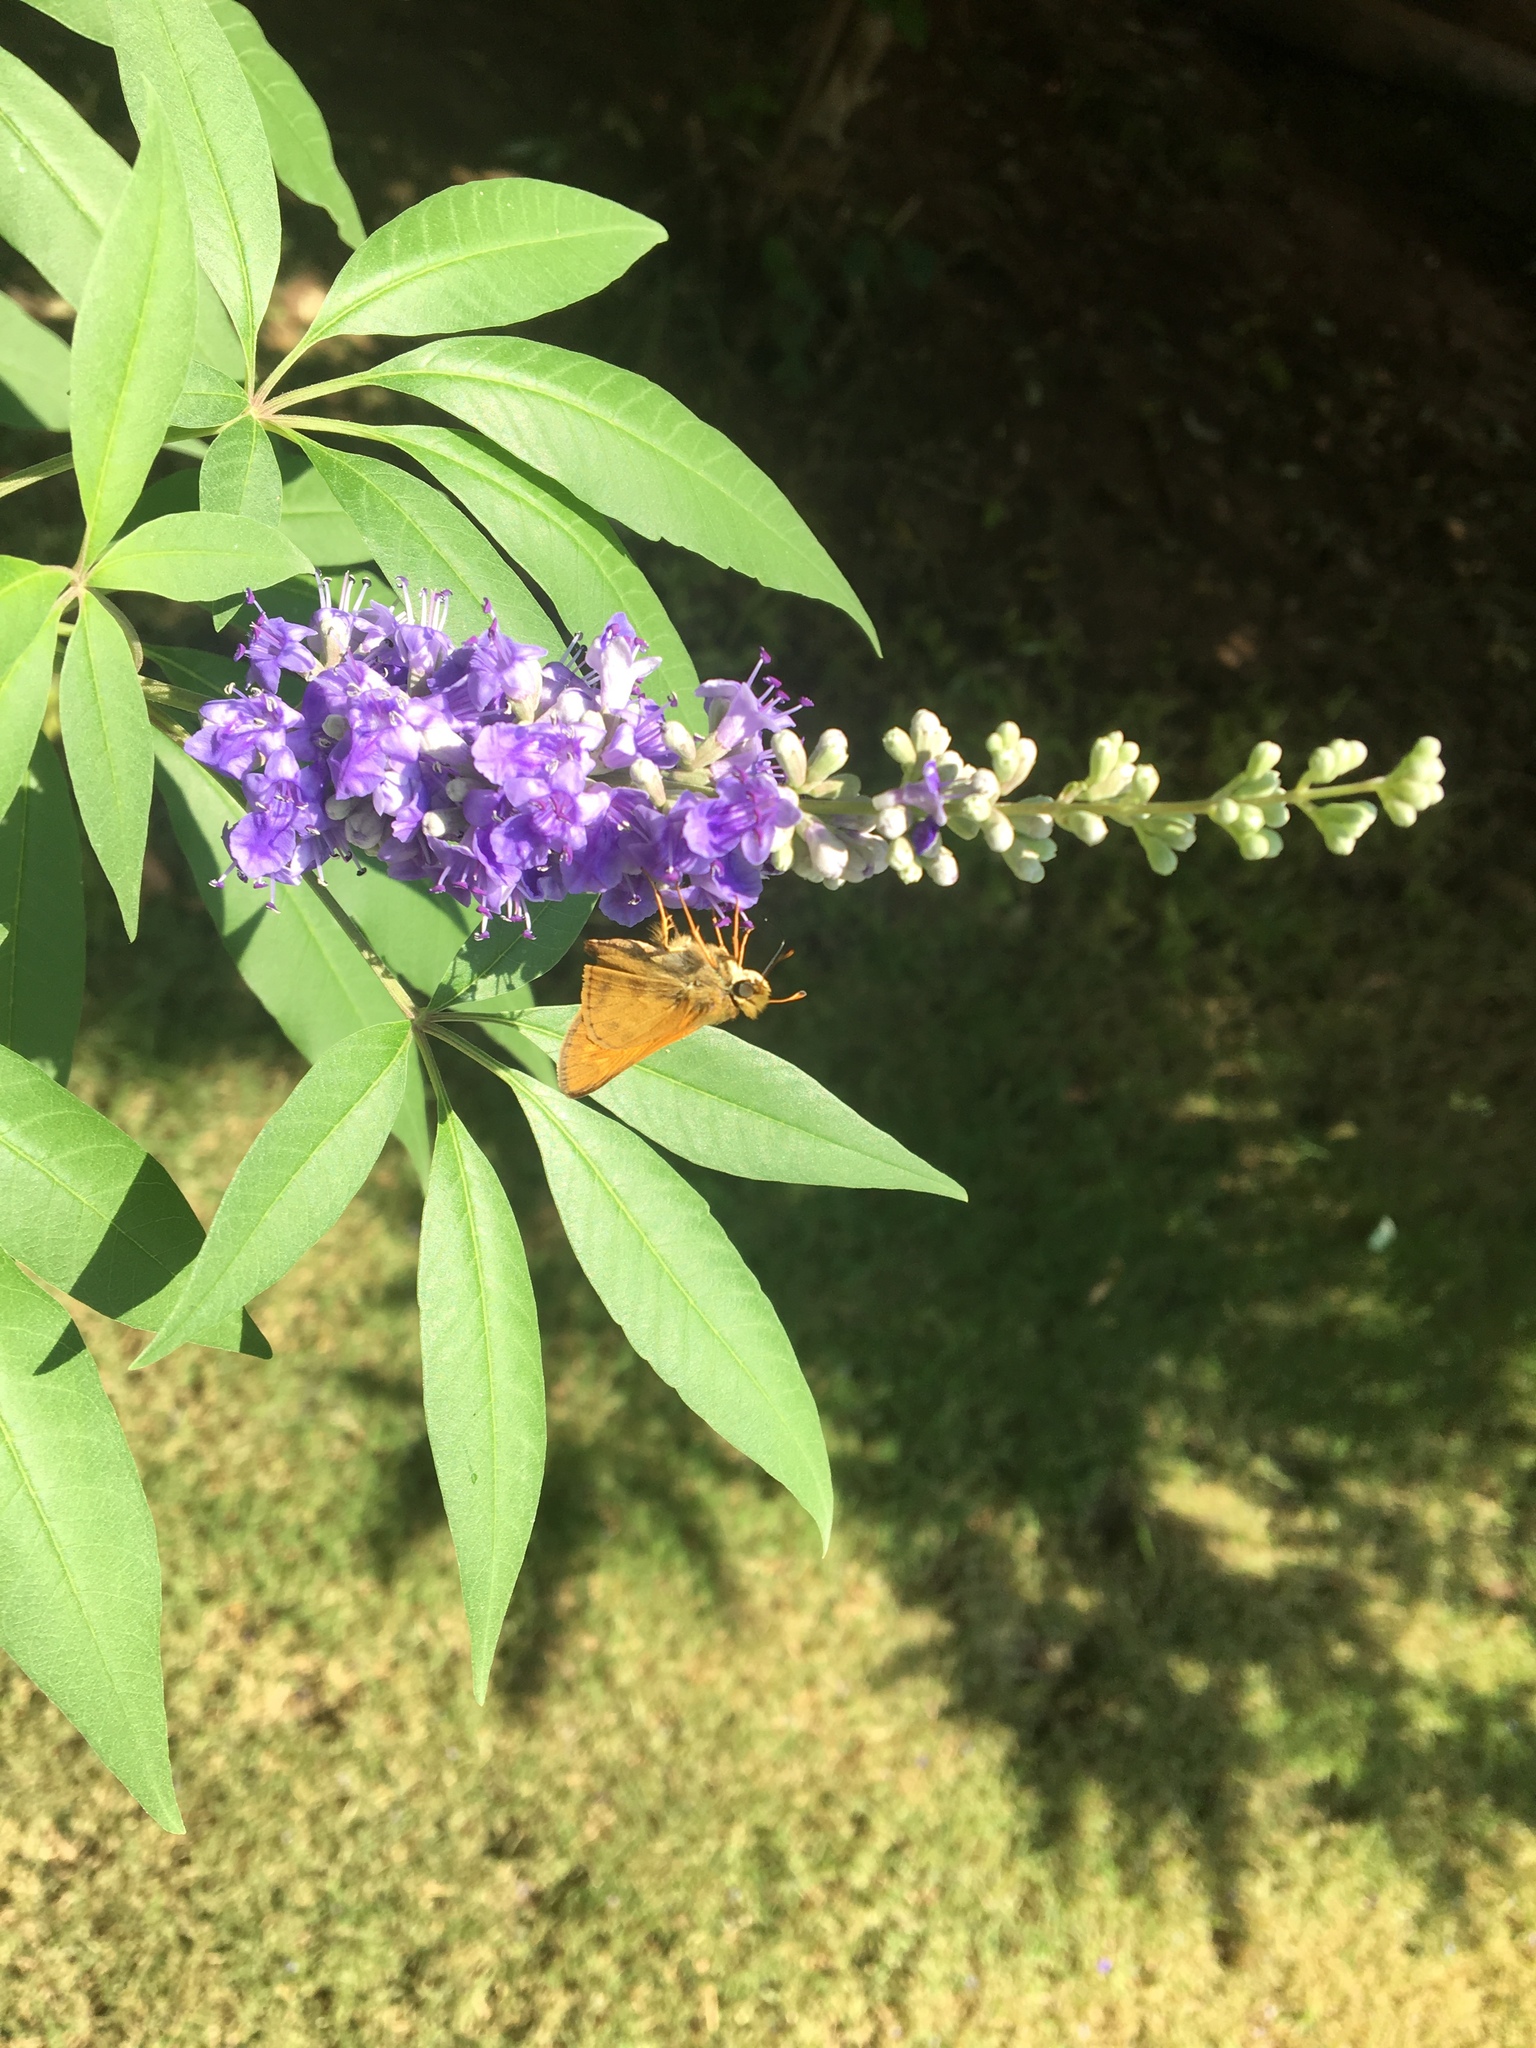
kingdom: Animalia
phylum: Arthropoda
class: Insecta
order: Lepidoptera
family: Hesperiidae
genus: Atalopedes
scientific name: Atalopedes
